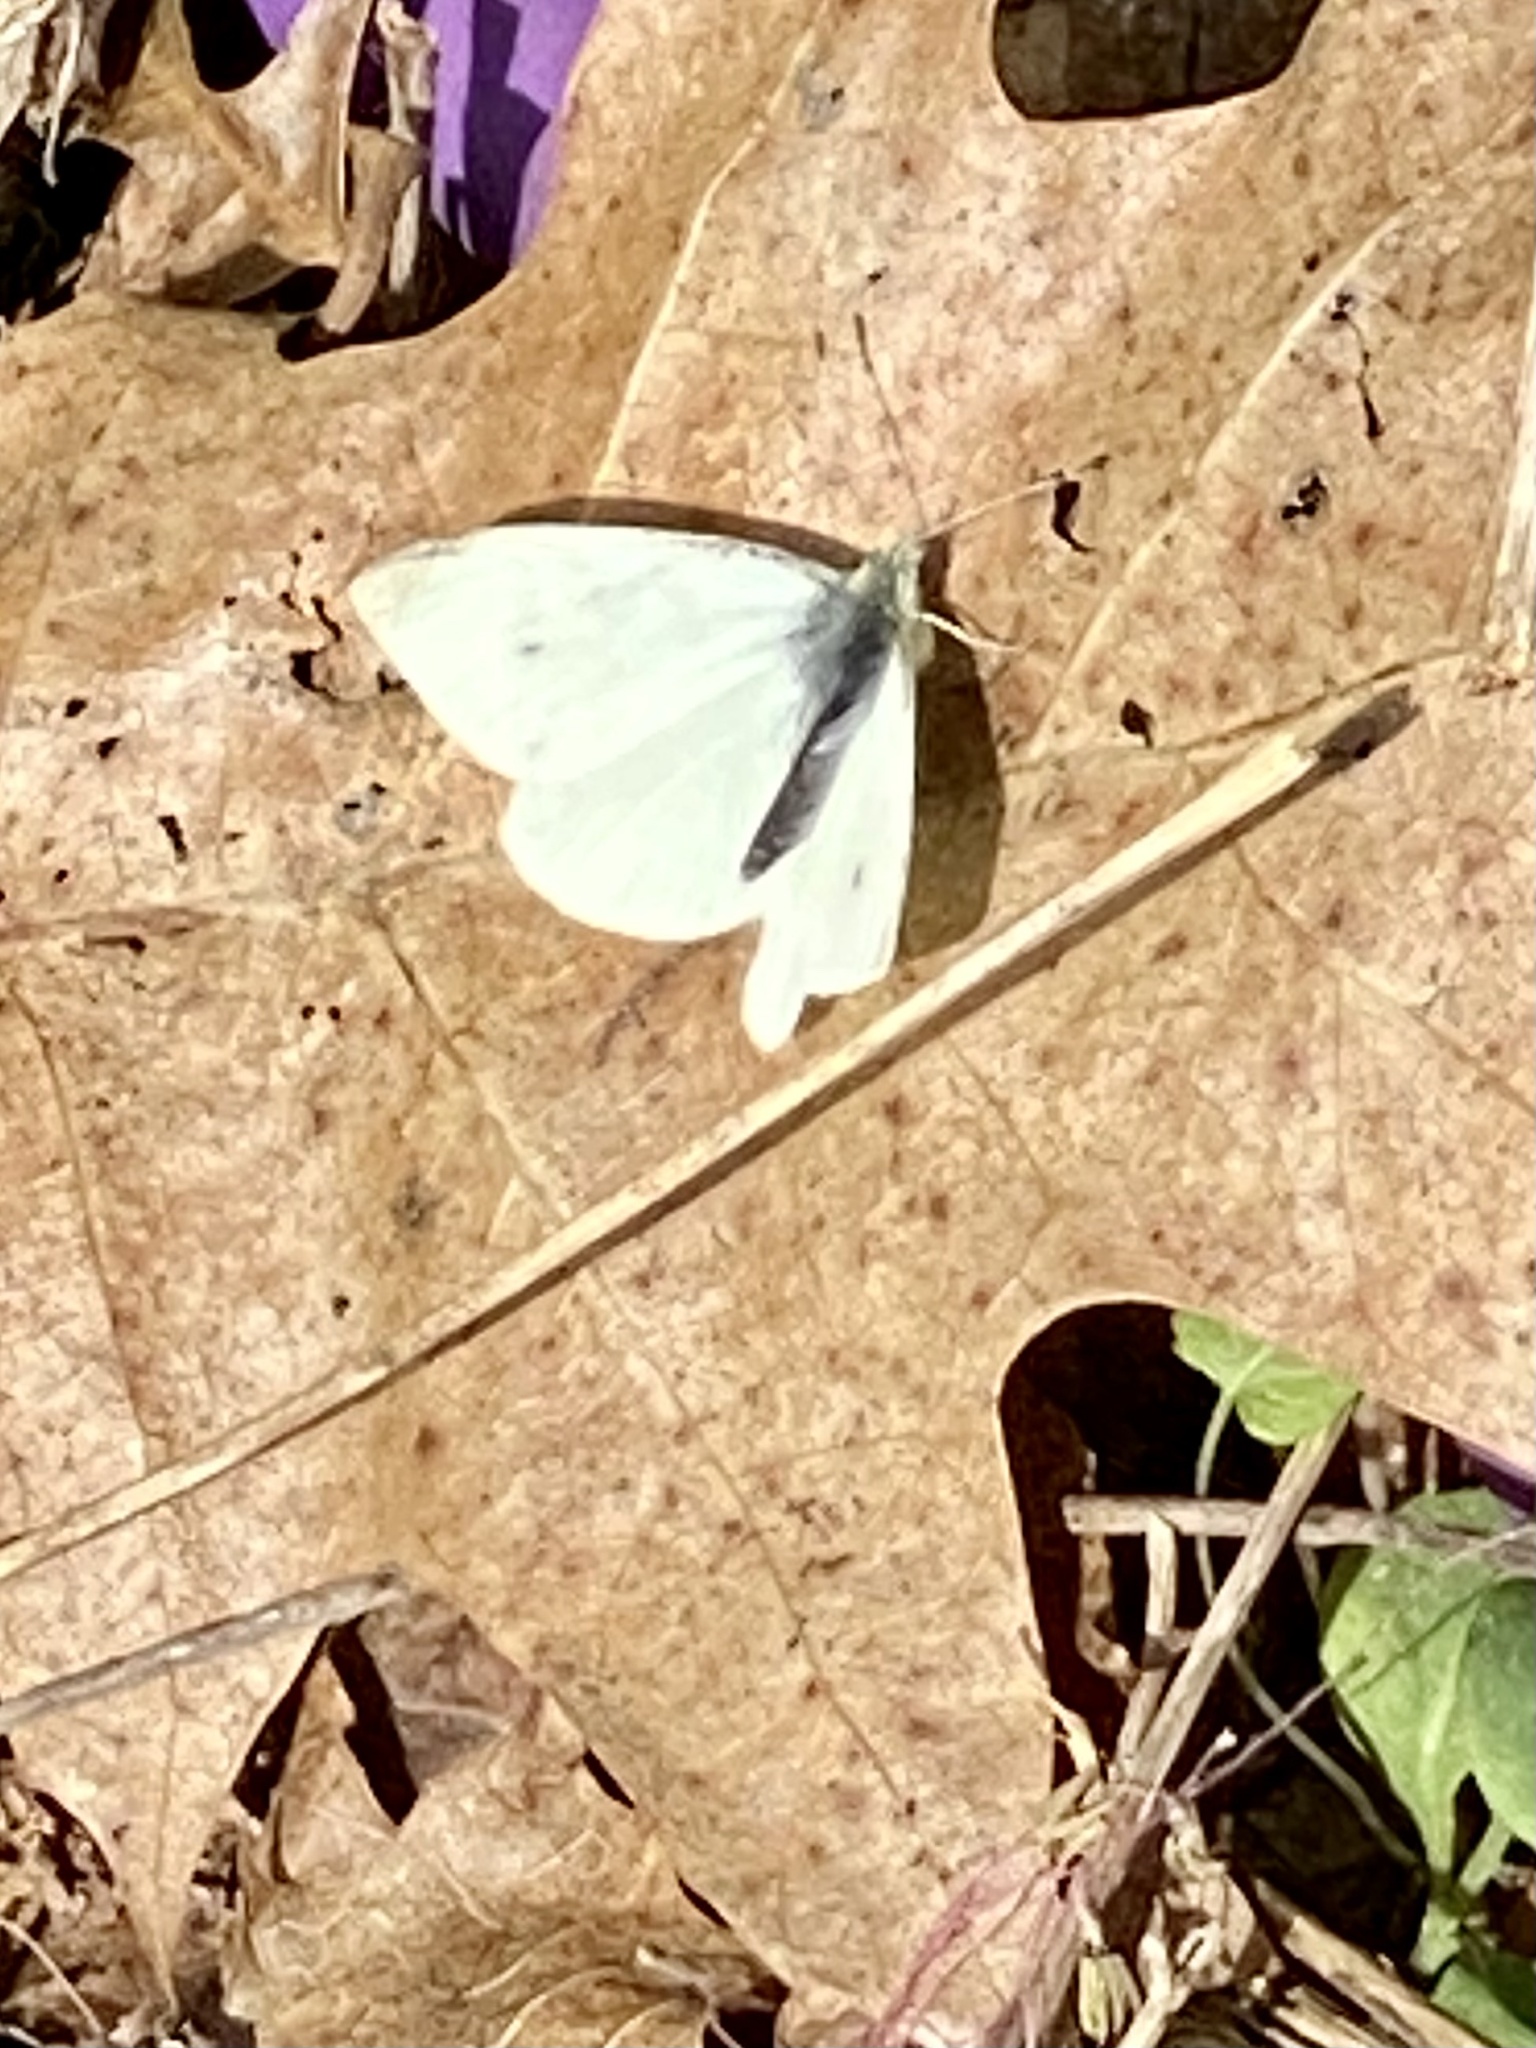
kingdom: Animalia
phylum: Arthropoda
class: Insecta
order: Lepidoptera
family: Pieridae
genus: Pieris
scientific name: Pieris rapae
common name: Small white
